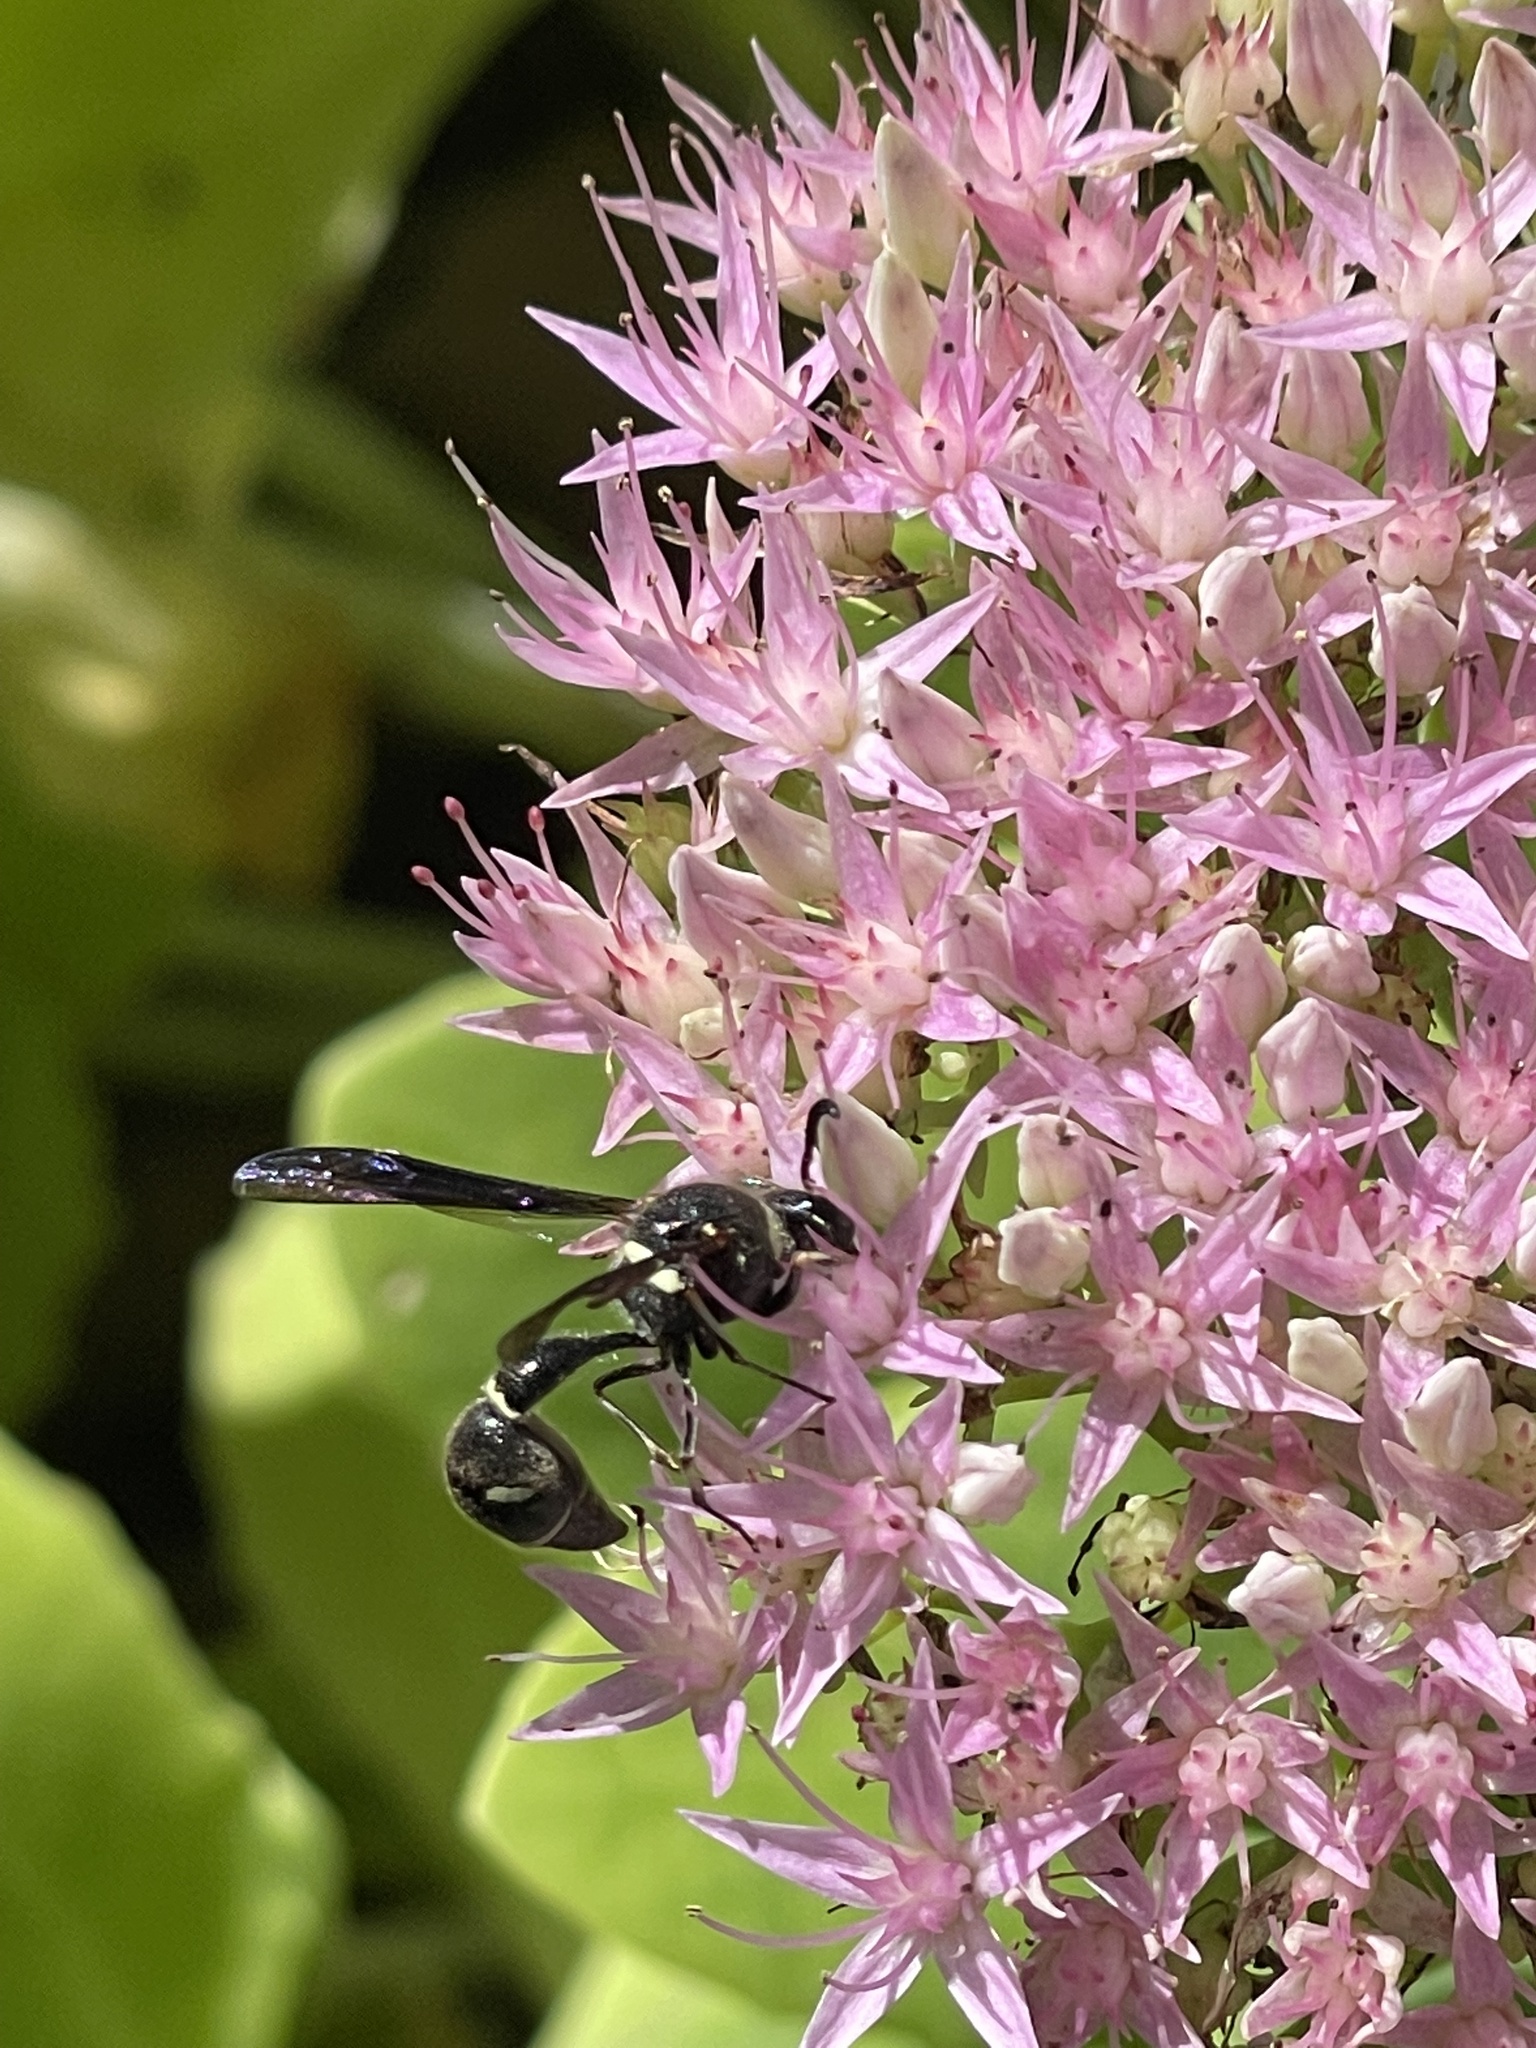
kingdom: Animalia
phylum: Arthropoda
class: Insecta
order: Hymenoptera
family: Vespidae
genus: Eumenes
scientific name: Eumenes fraternus
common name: Fraternal potter wasp
